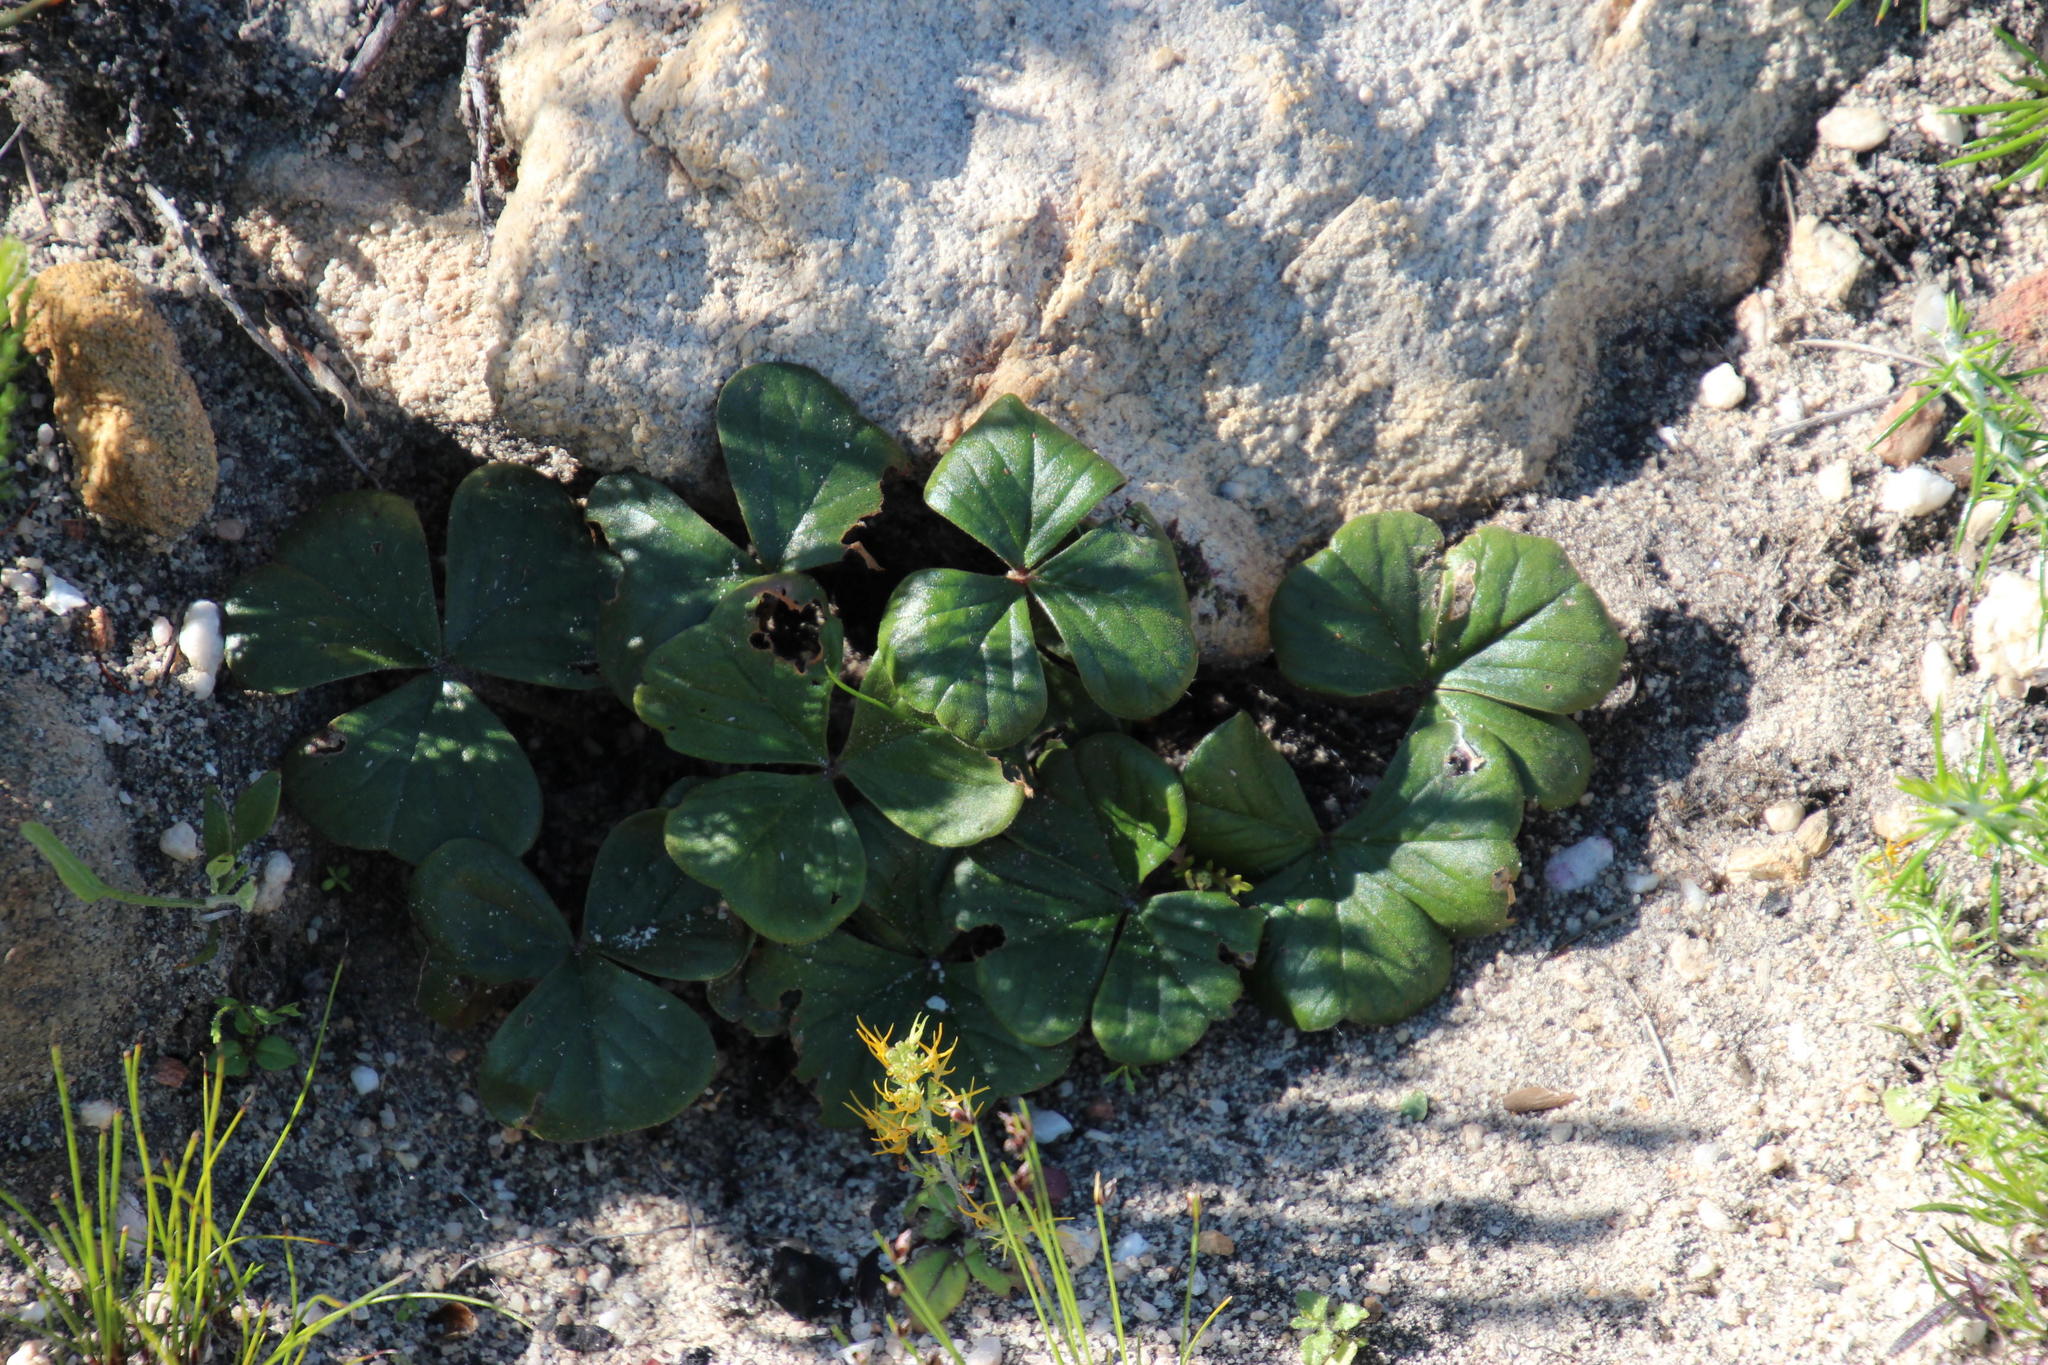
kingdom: Plantae
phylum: Tracheophyta
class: Magnoliopsida
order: Oxalidales
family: Oxalidaceae
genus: Oxalis
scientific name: Oxalis truncatula
